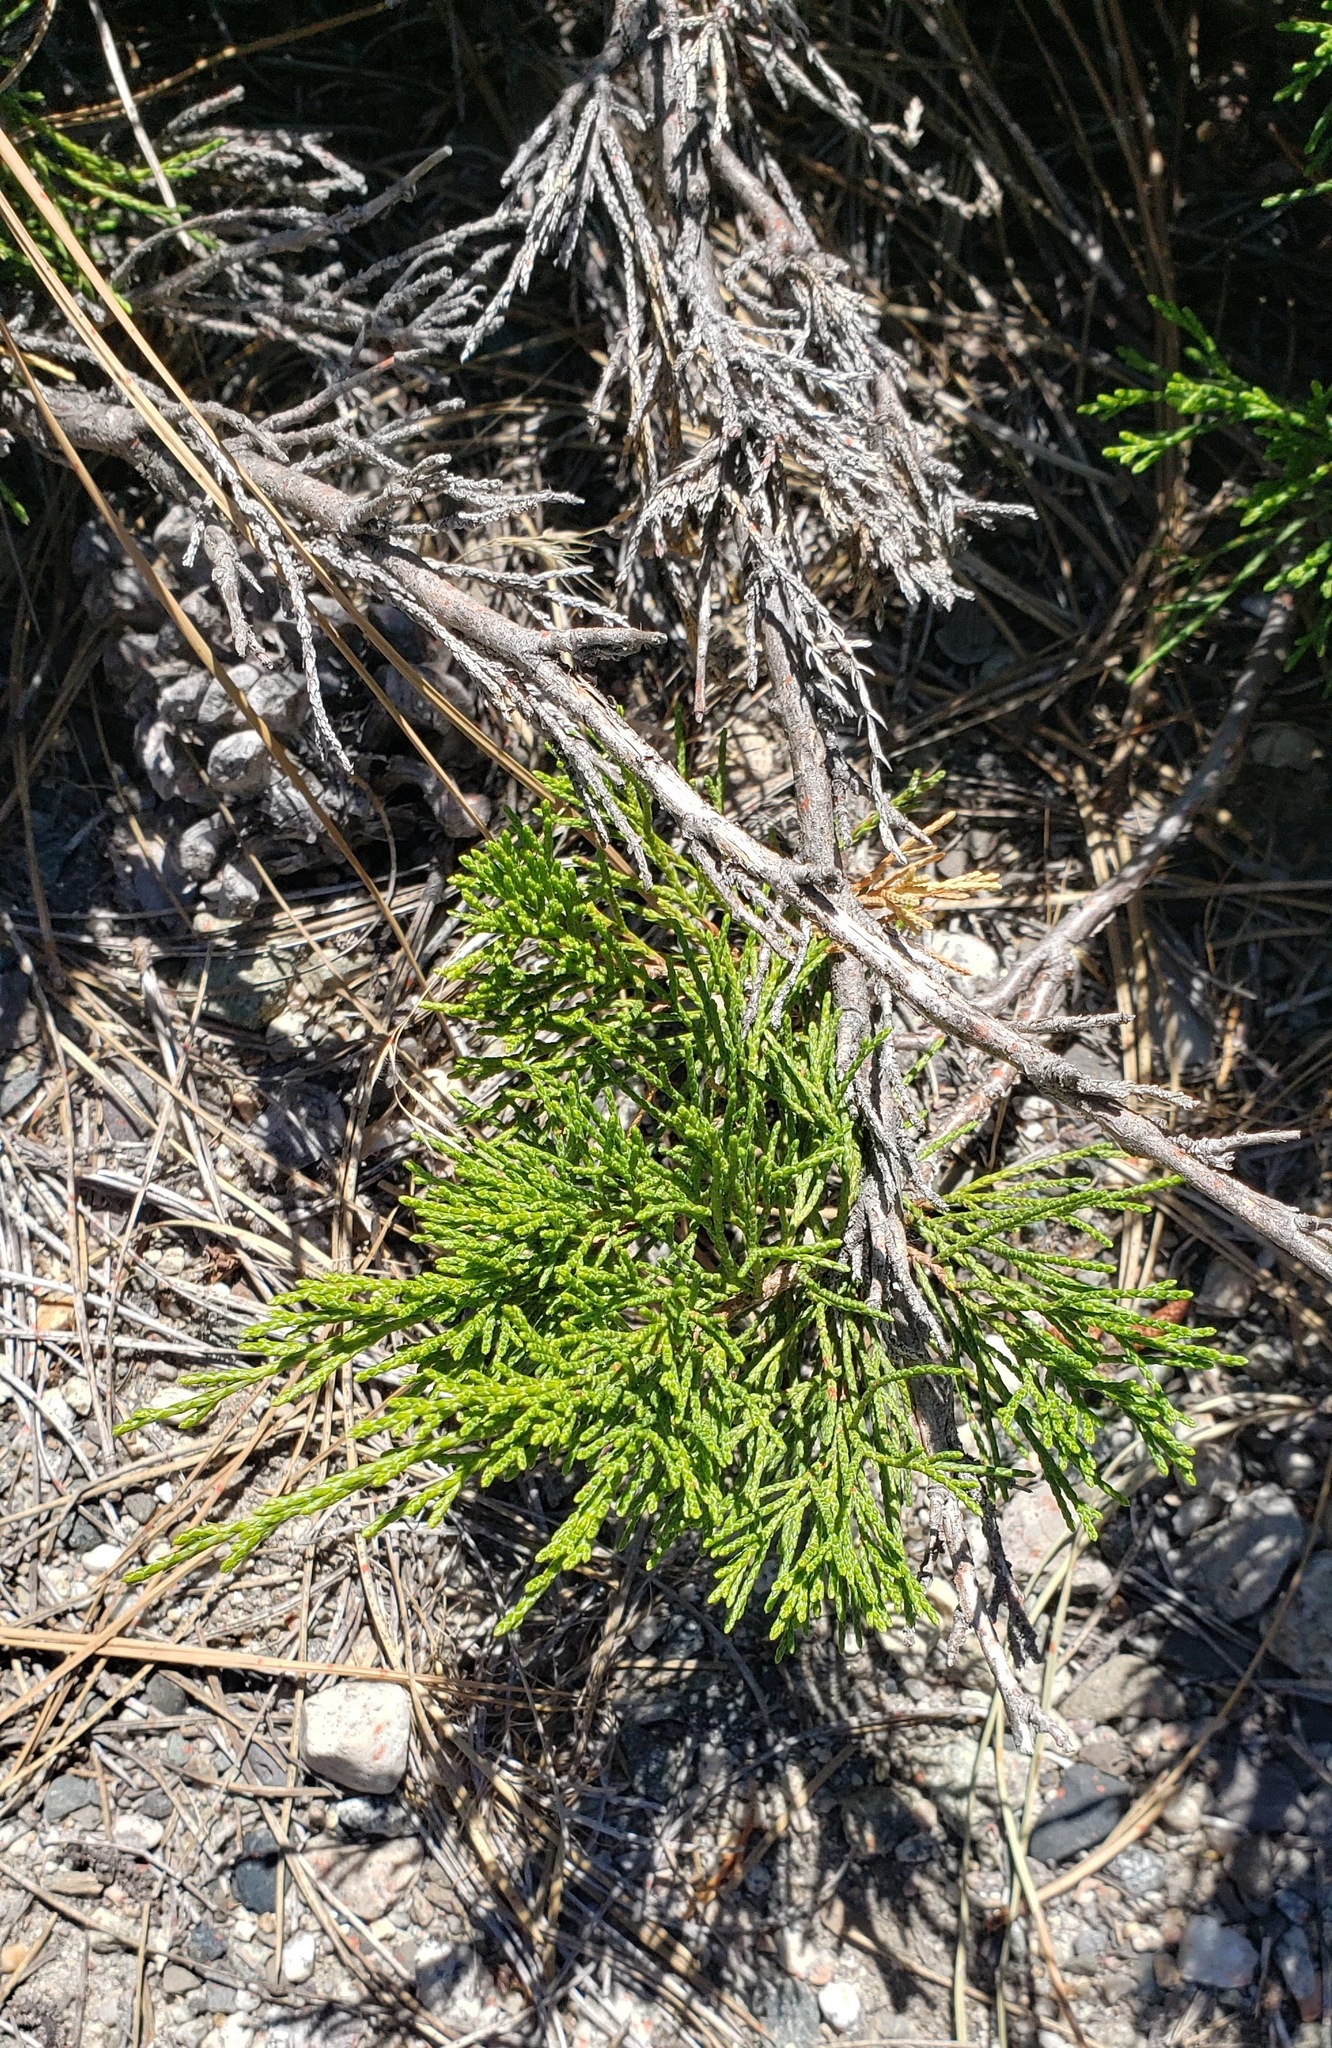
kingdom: Plantae
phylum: Tracheophyta
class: Pinopsida
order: Pinales
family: Cupressaceae
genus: Juniperus
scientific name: Juniperus horizontalis
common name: Creeping juniper
